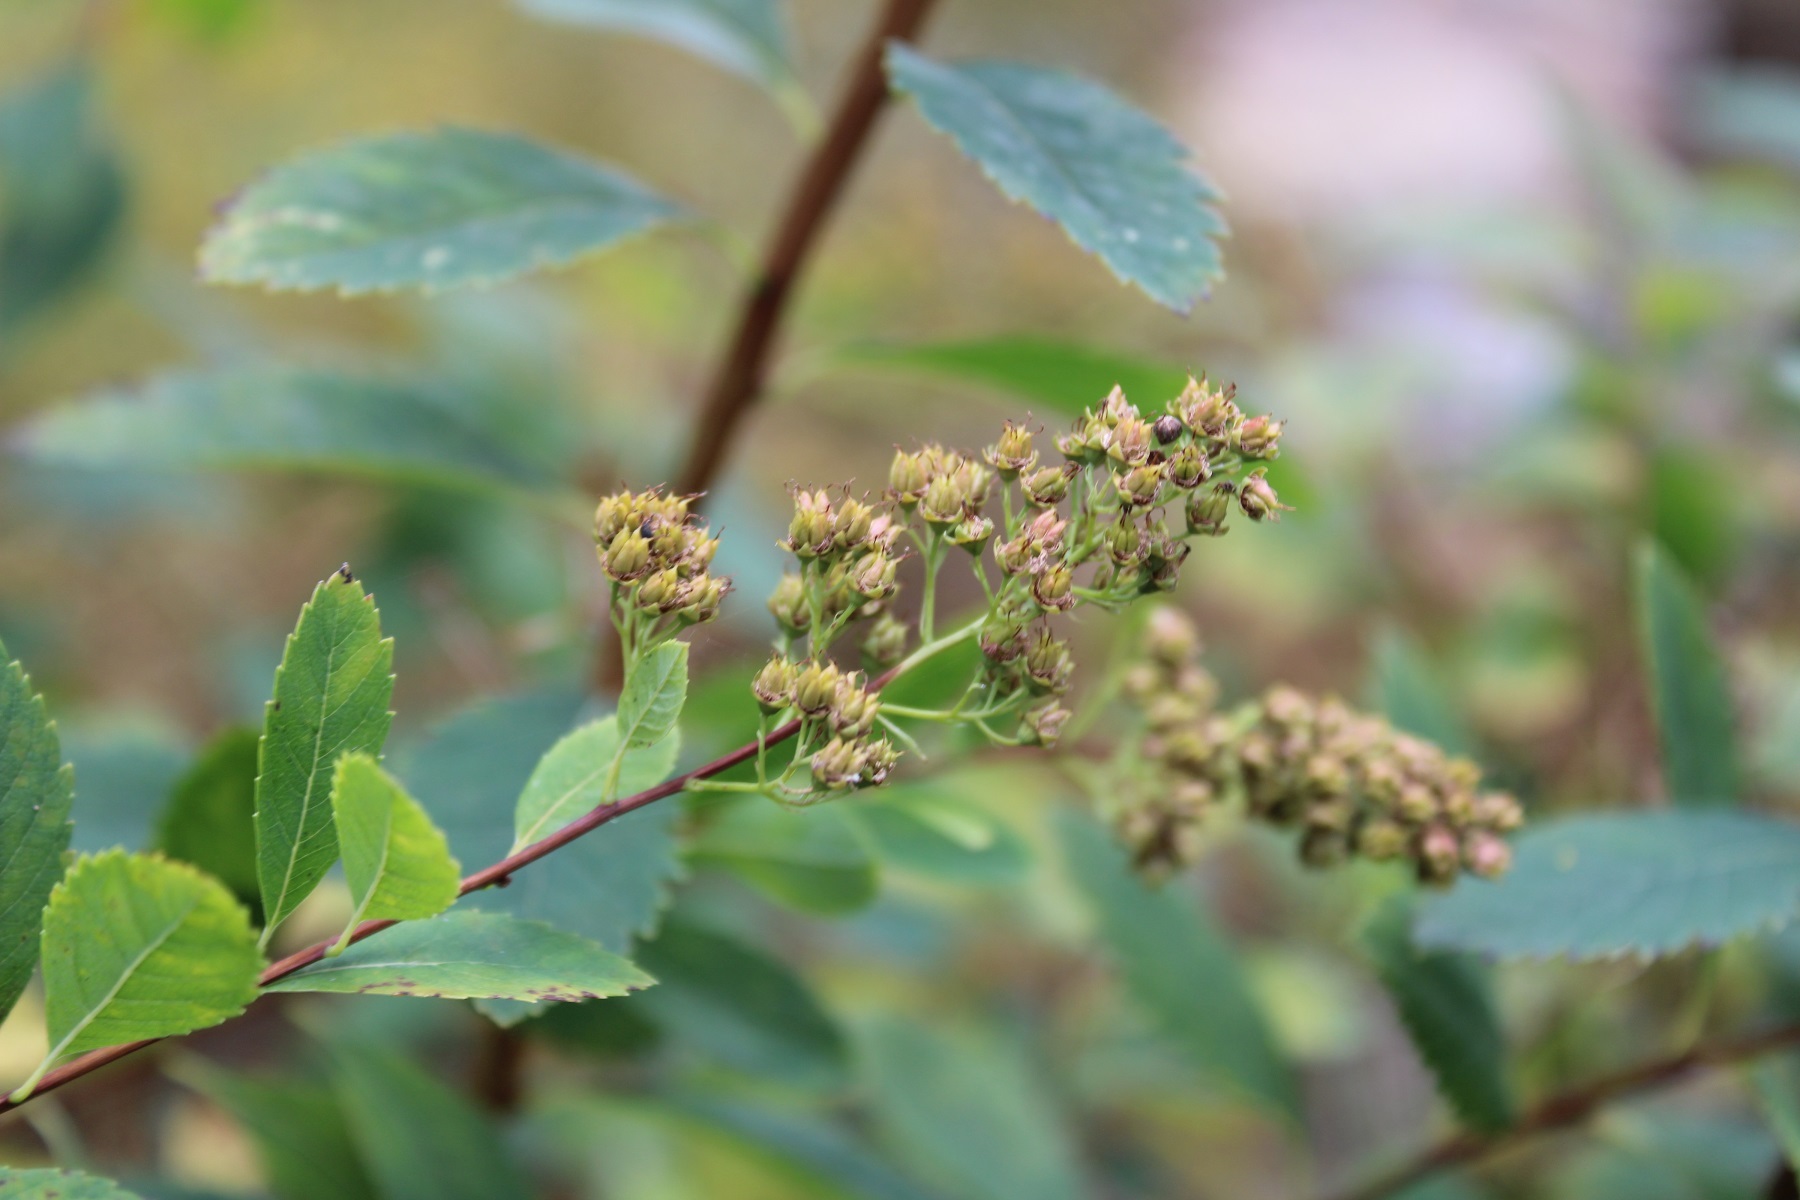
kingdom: Plantae
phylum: Tracheophyta
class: Magnoliopsida
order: Rosales
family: Rosaceae
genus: Spiraea
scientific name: Spiraea alba
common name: Pale bridewort
